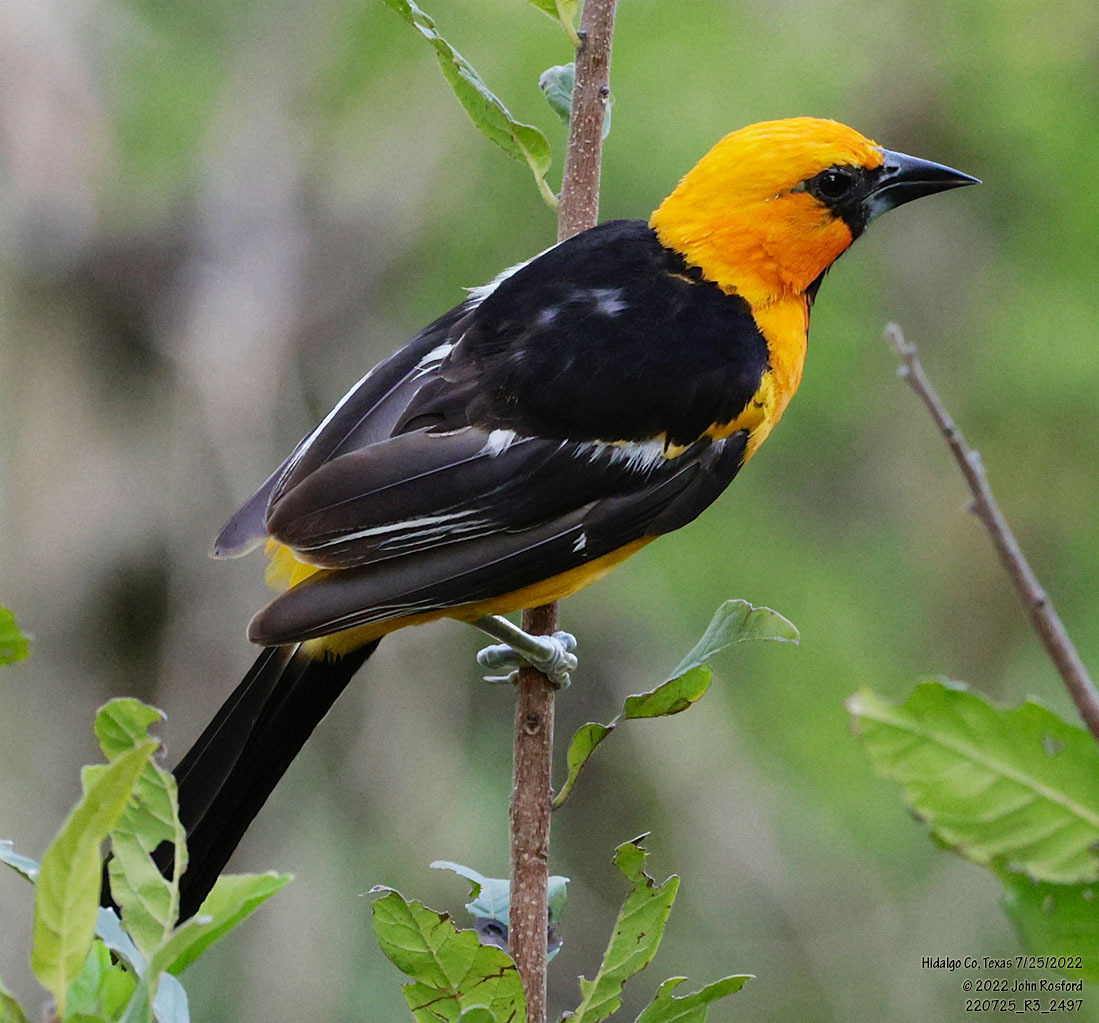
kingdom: Animalia
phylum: Chordata
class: Aves
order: Passeriformes
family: Icteridae
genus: Icterus
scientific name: Icterus gularis
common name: Altamira oriole
